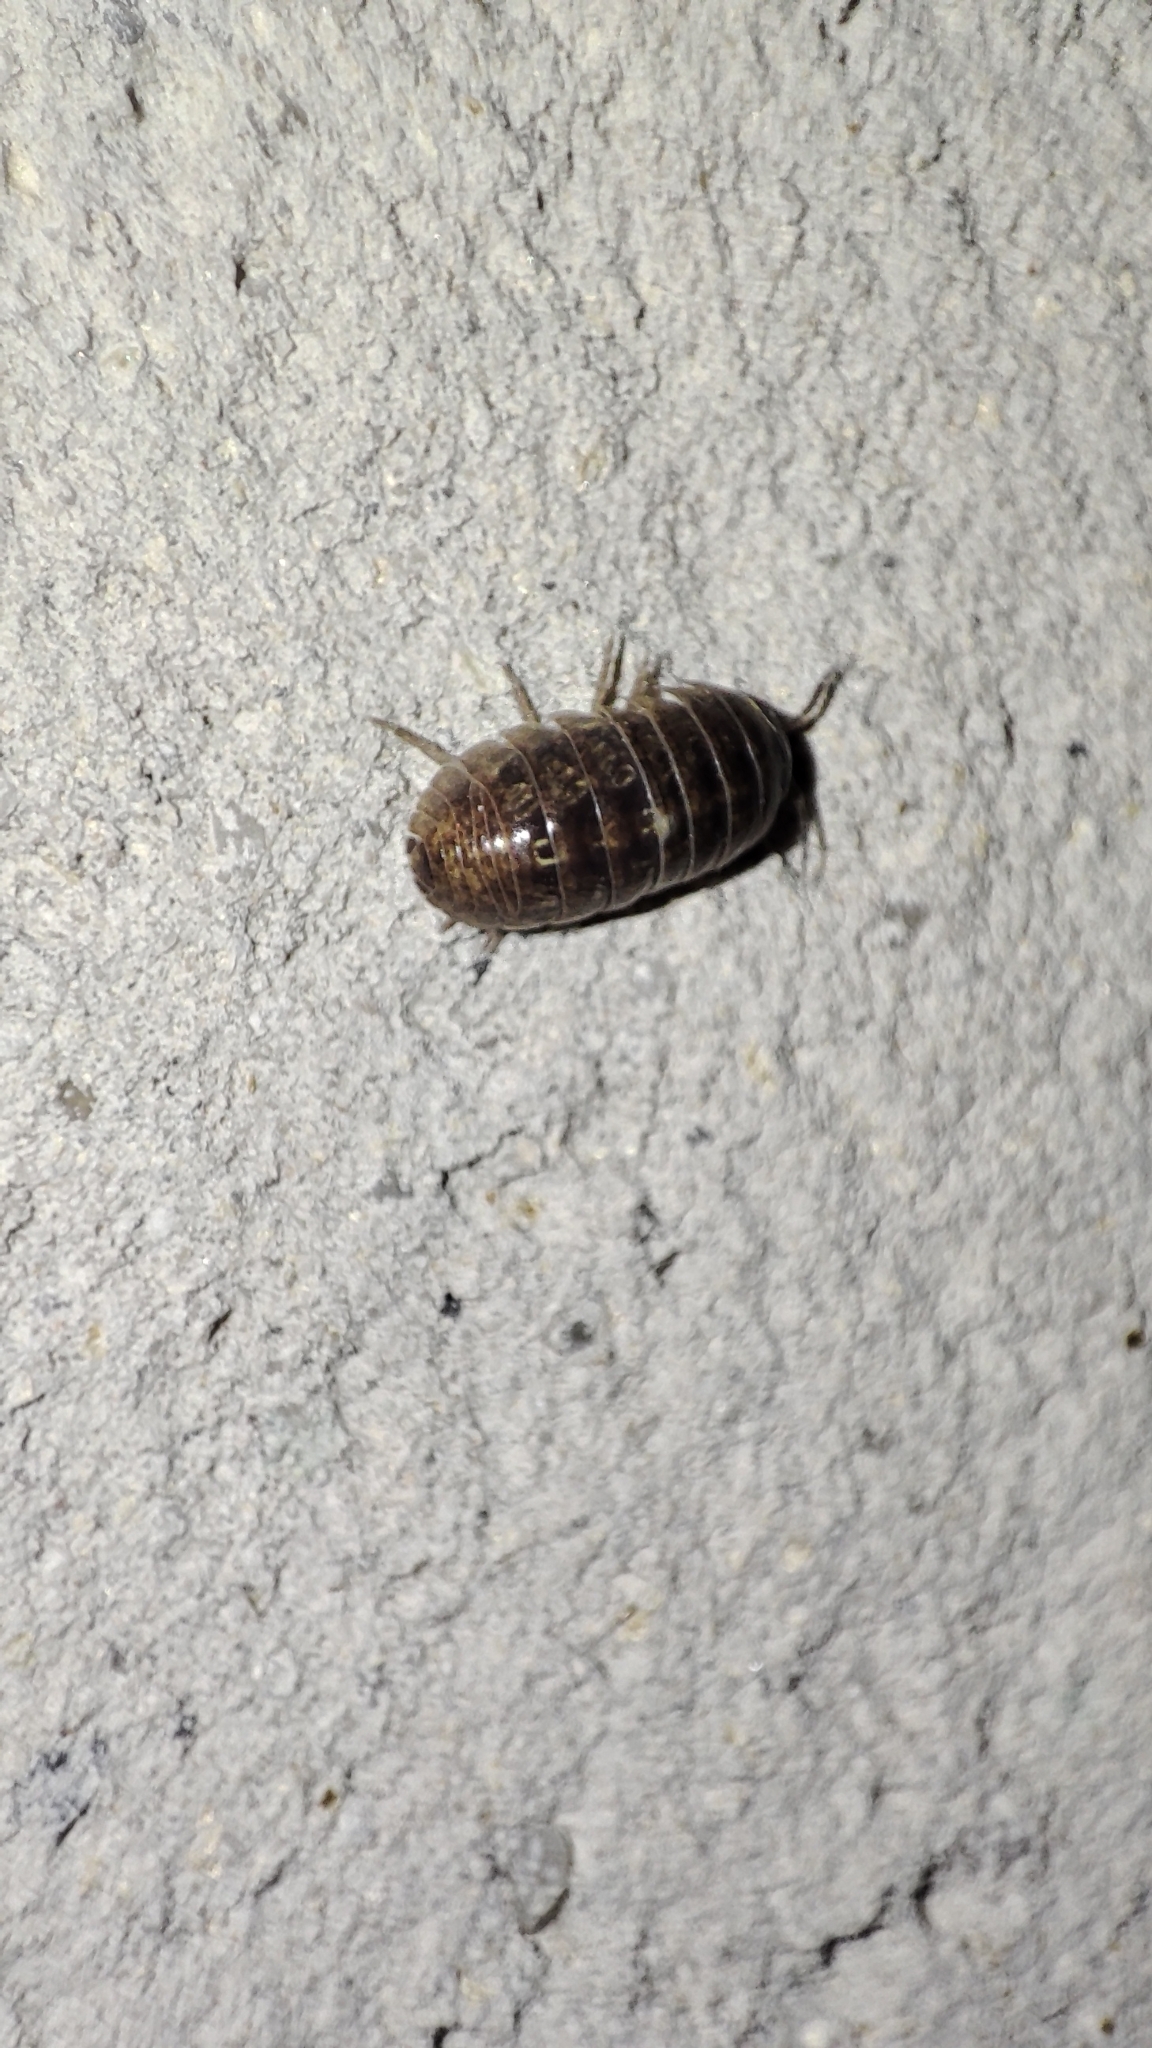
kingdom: Animalia
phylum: Arthropoda
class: Malacostraca
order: Isopoda
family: Armadillidiidae
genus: Armadillidium
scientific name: Armadillidium vulgare
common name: Common pill woodlouse
